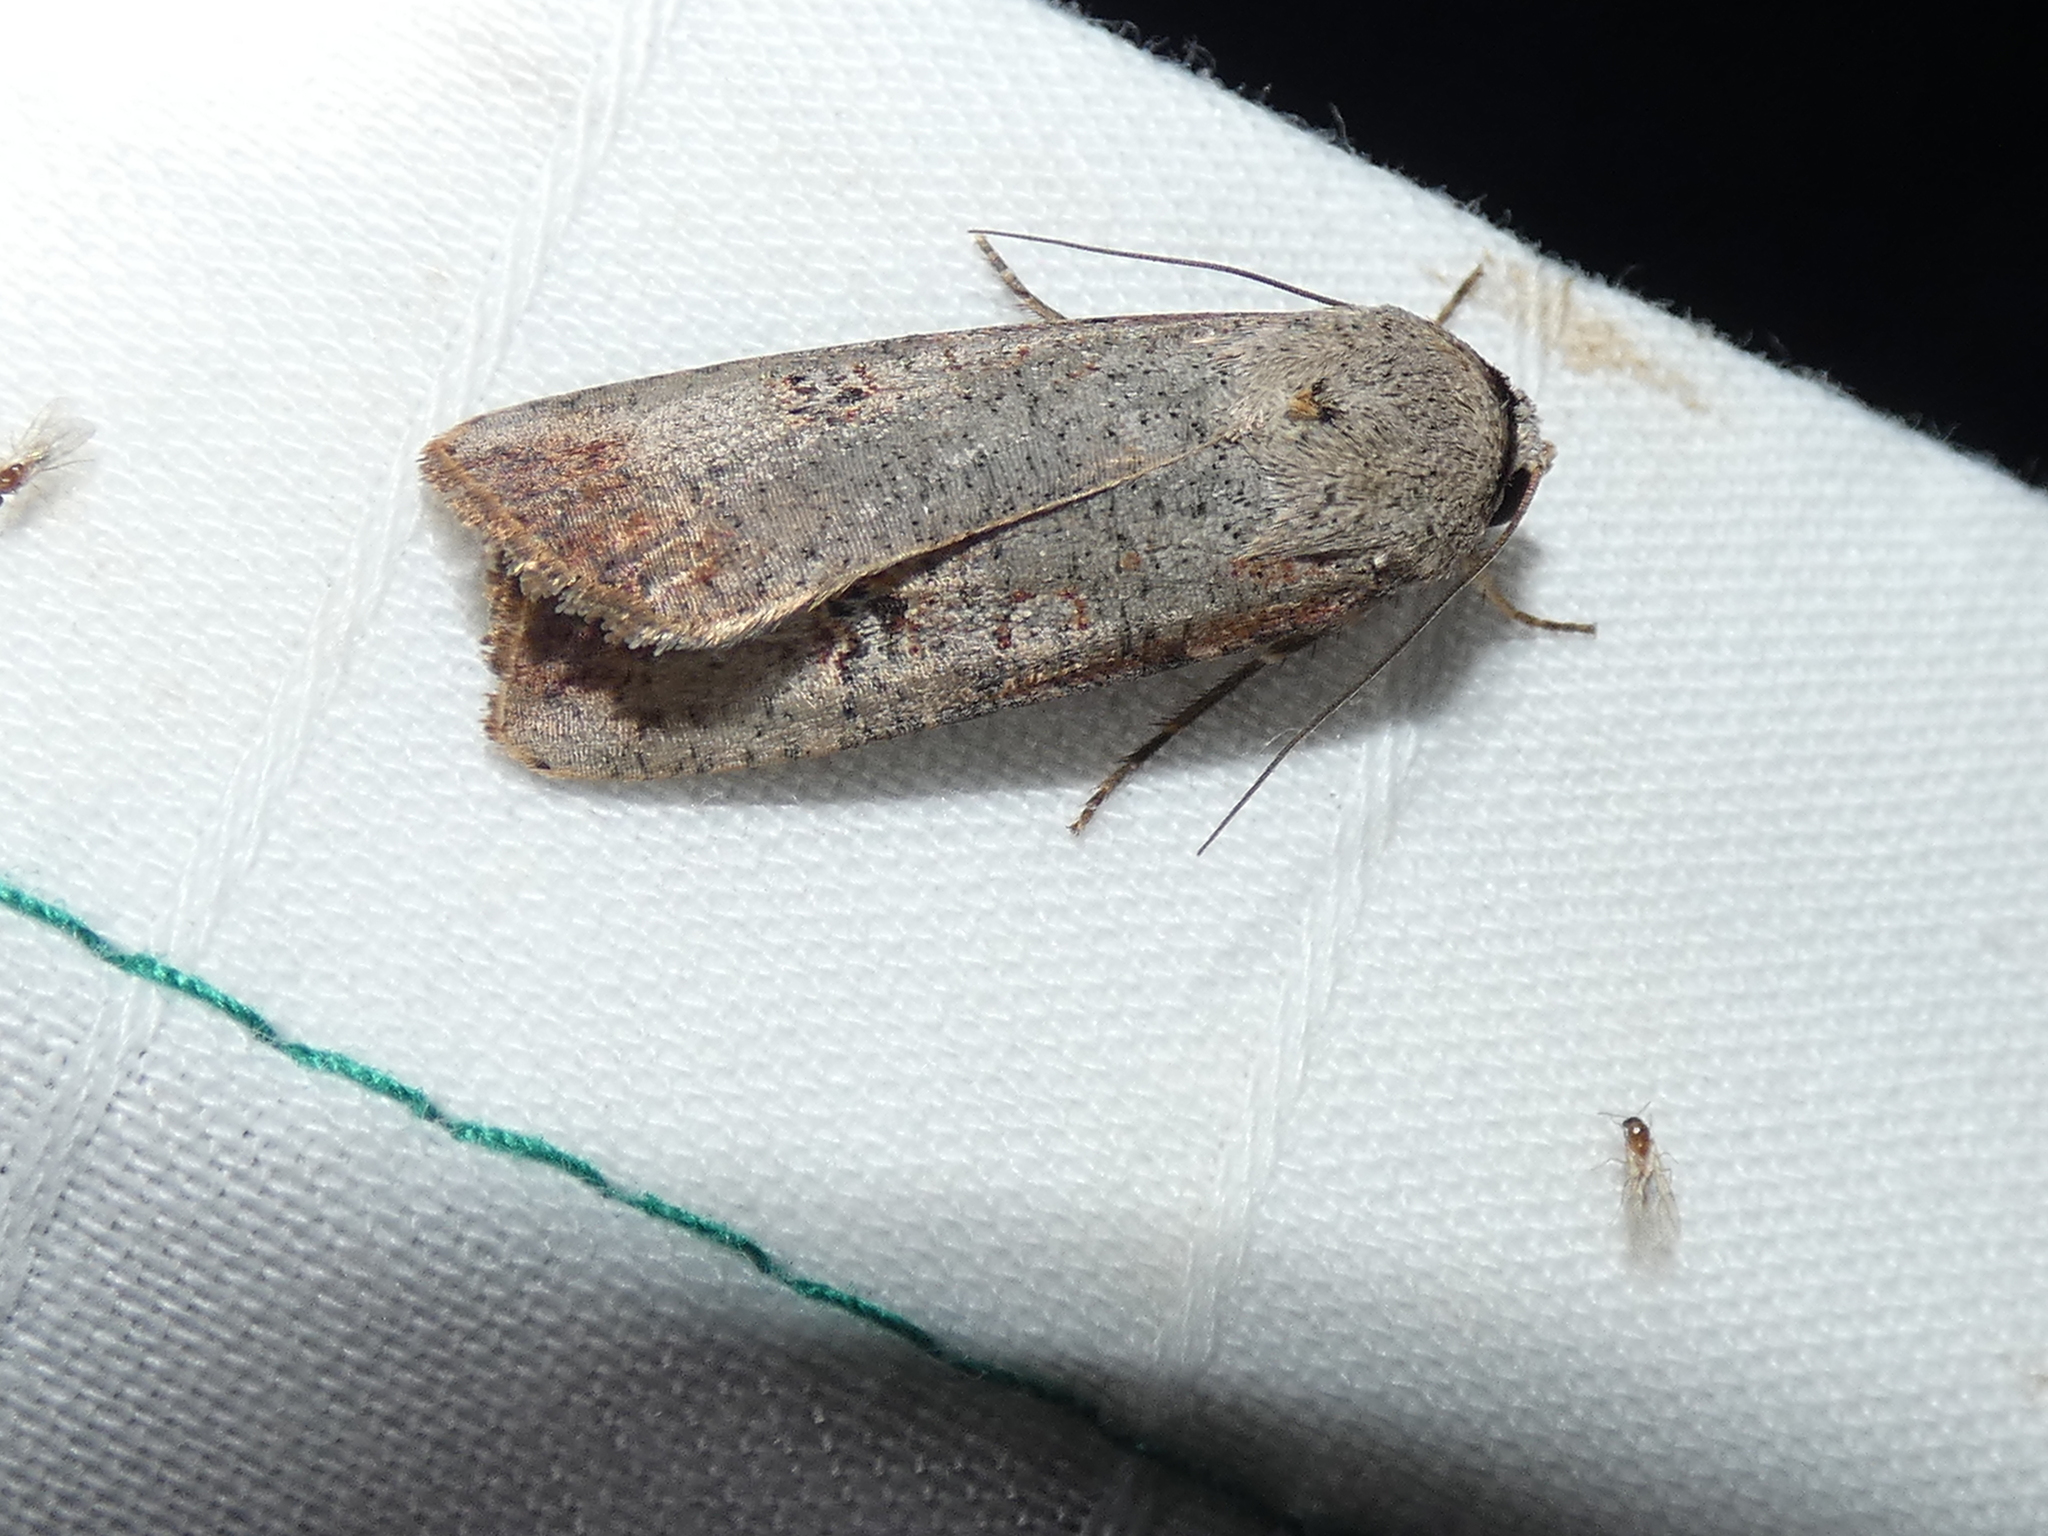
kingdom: Animalia
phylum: Arthropoda
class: Insecta
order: Lepidoptera
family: Noctuidae
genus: Anicla
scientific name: Anicla infecta
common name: Green cutworm
